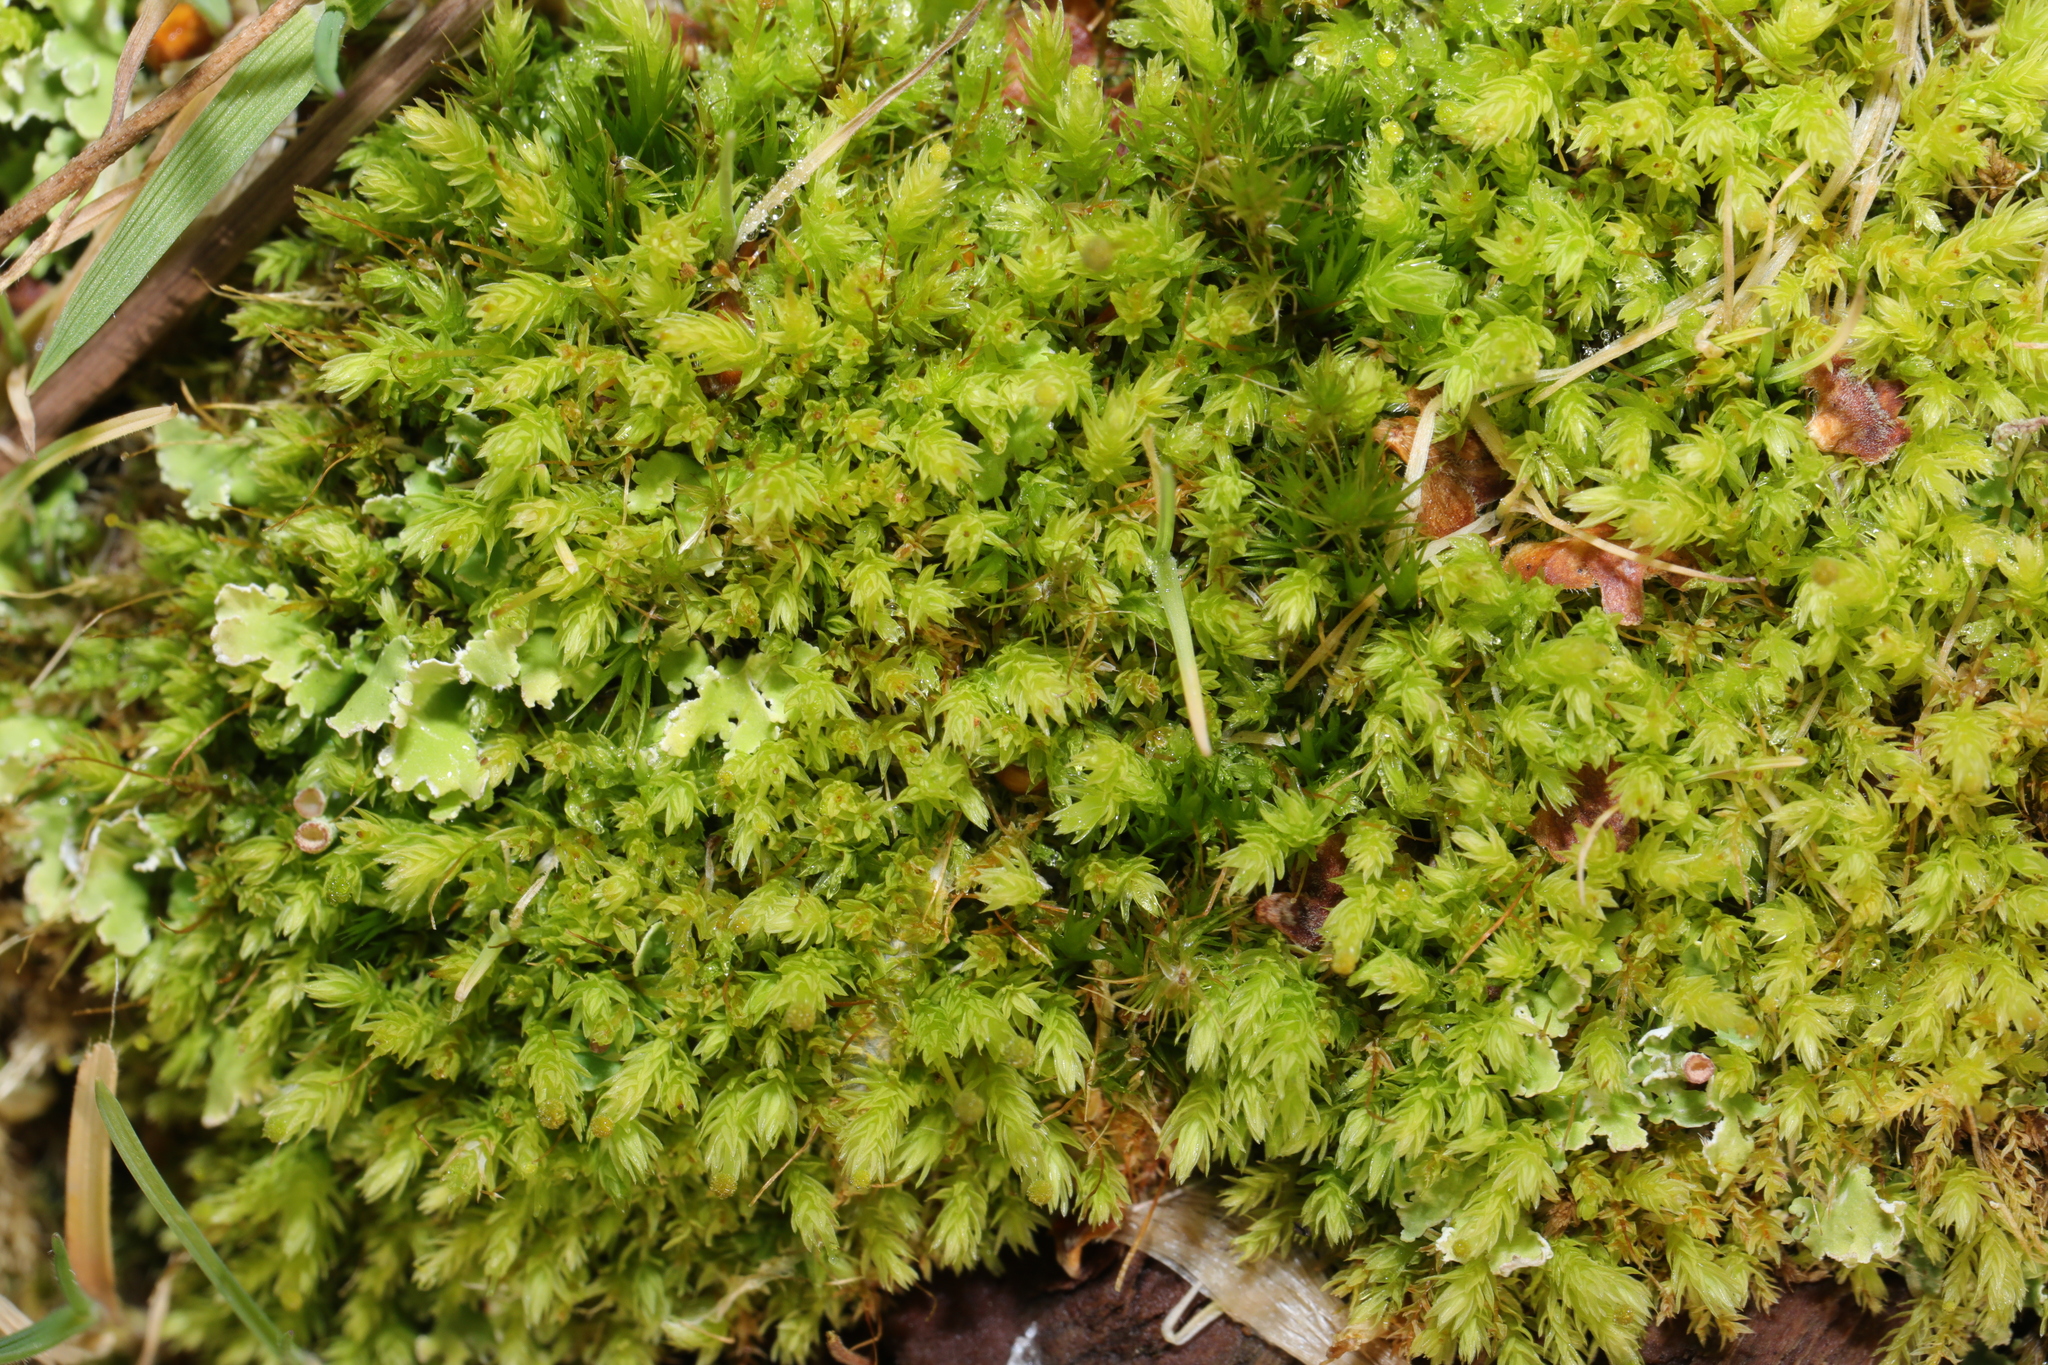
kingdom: Plantae
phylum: Bryophyta
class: Bryopsida
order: Aulacomniales
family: Aulacomniaceae
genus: Aulacomnium
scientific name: Aulacomnium androgynum
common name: Little groove moss
